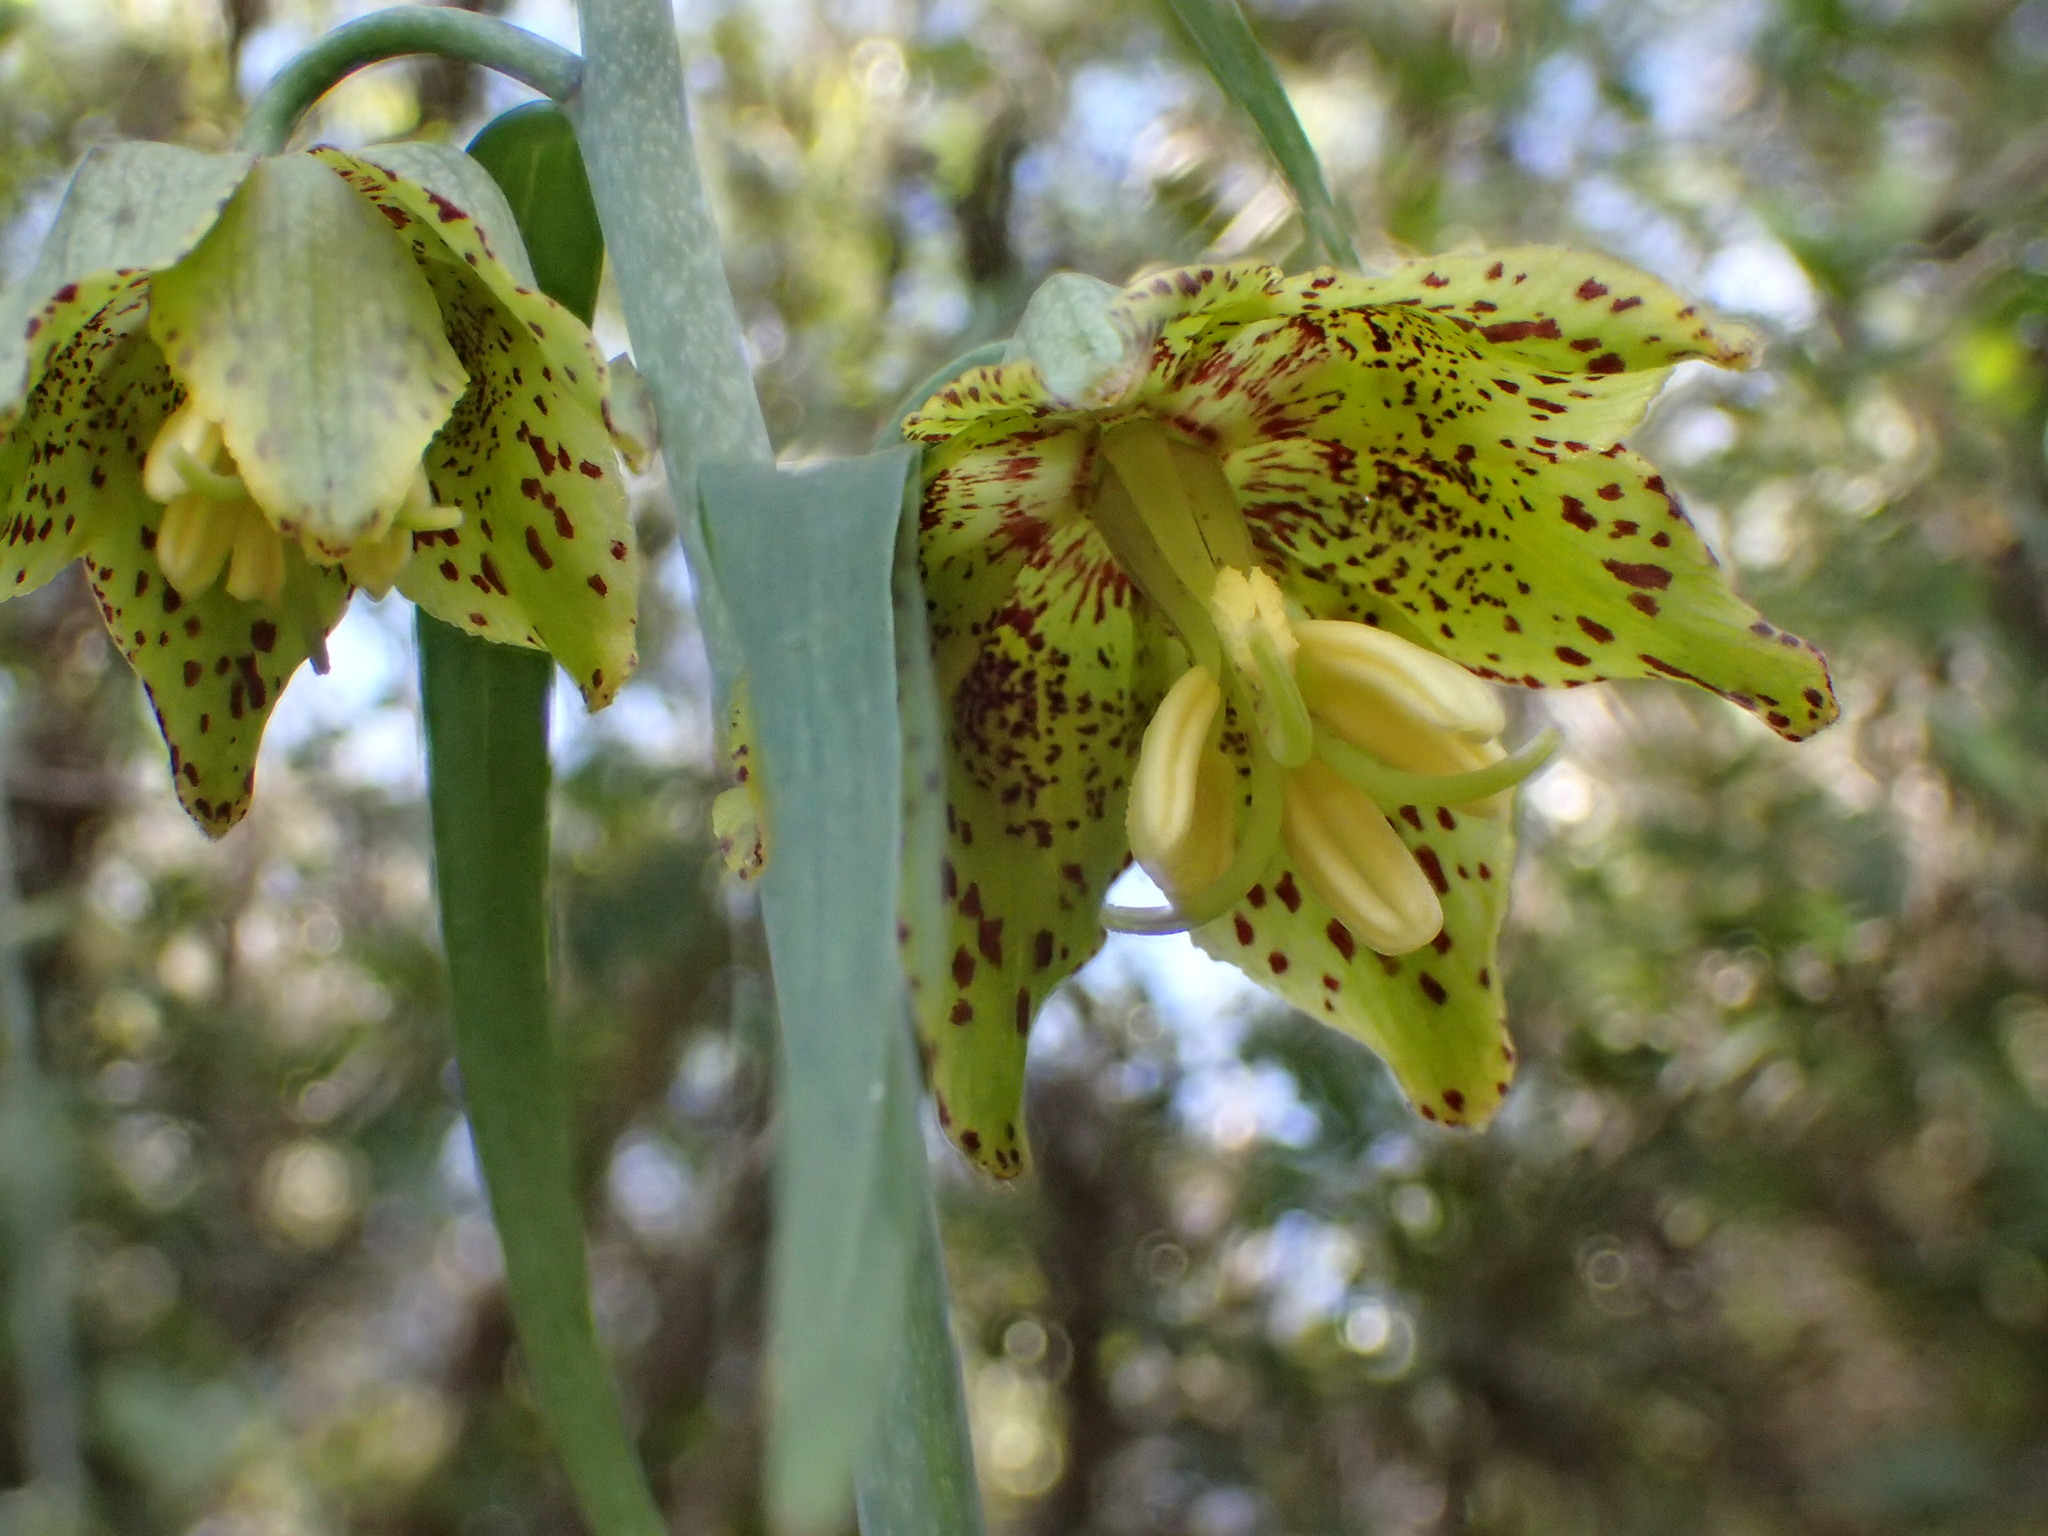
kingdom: Plantae
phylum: Tracheophyta
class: Liliopsida
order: Liliales
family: Liliaceae
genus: Fritillaria
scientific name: Fritillaria ojaiensis
